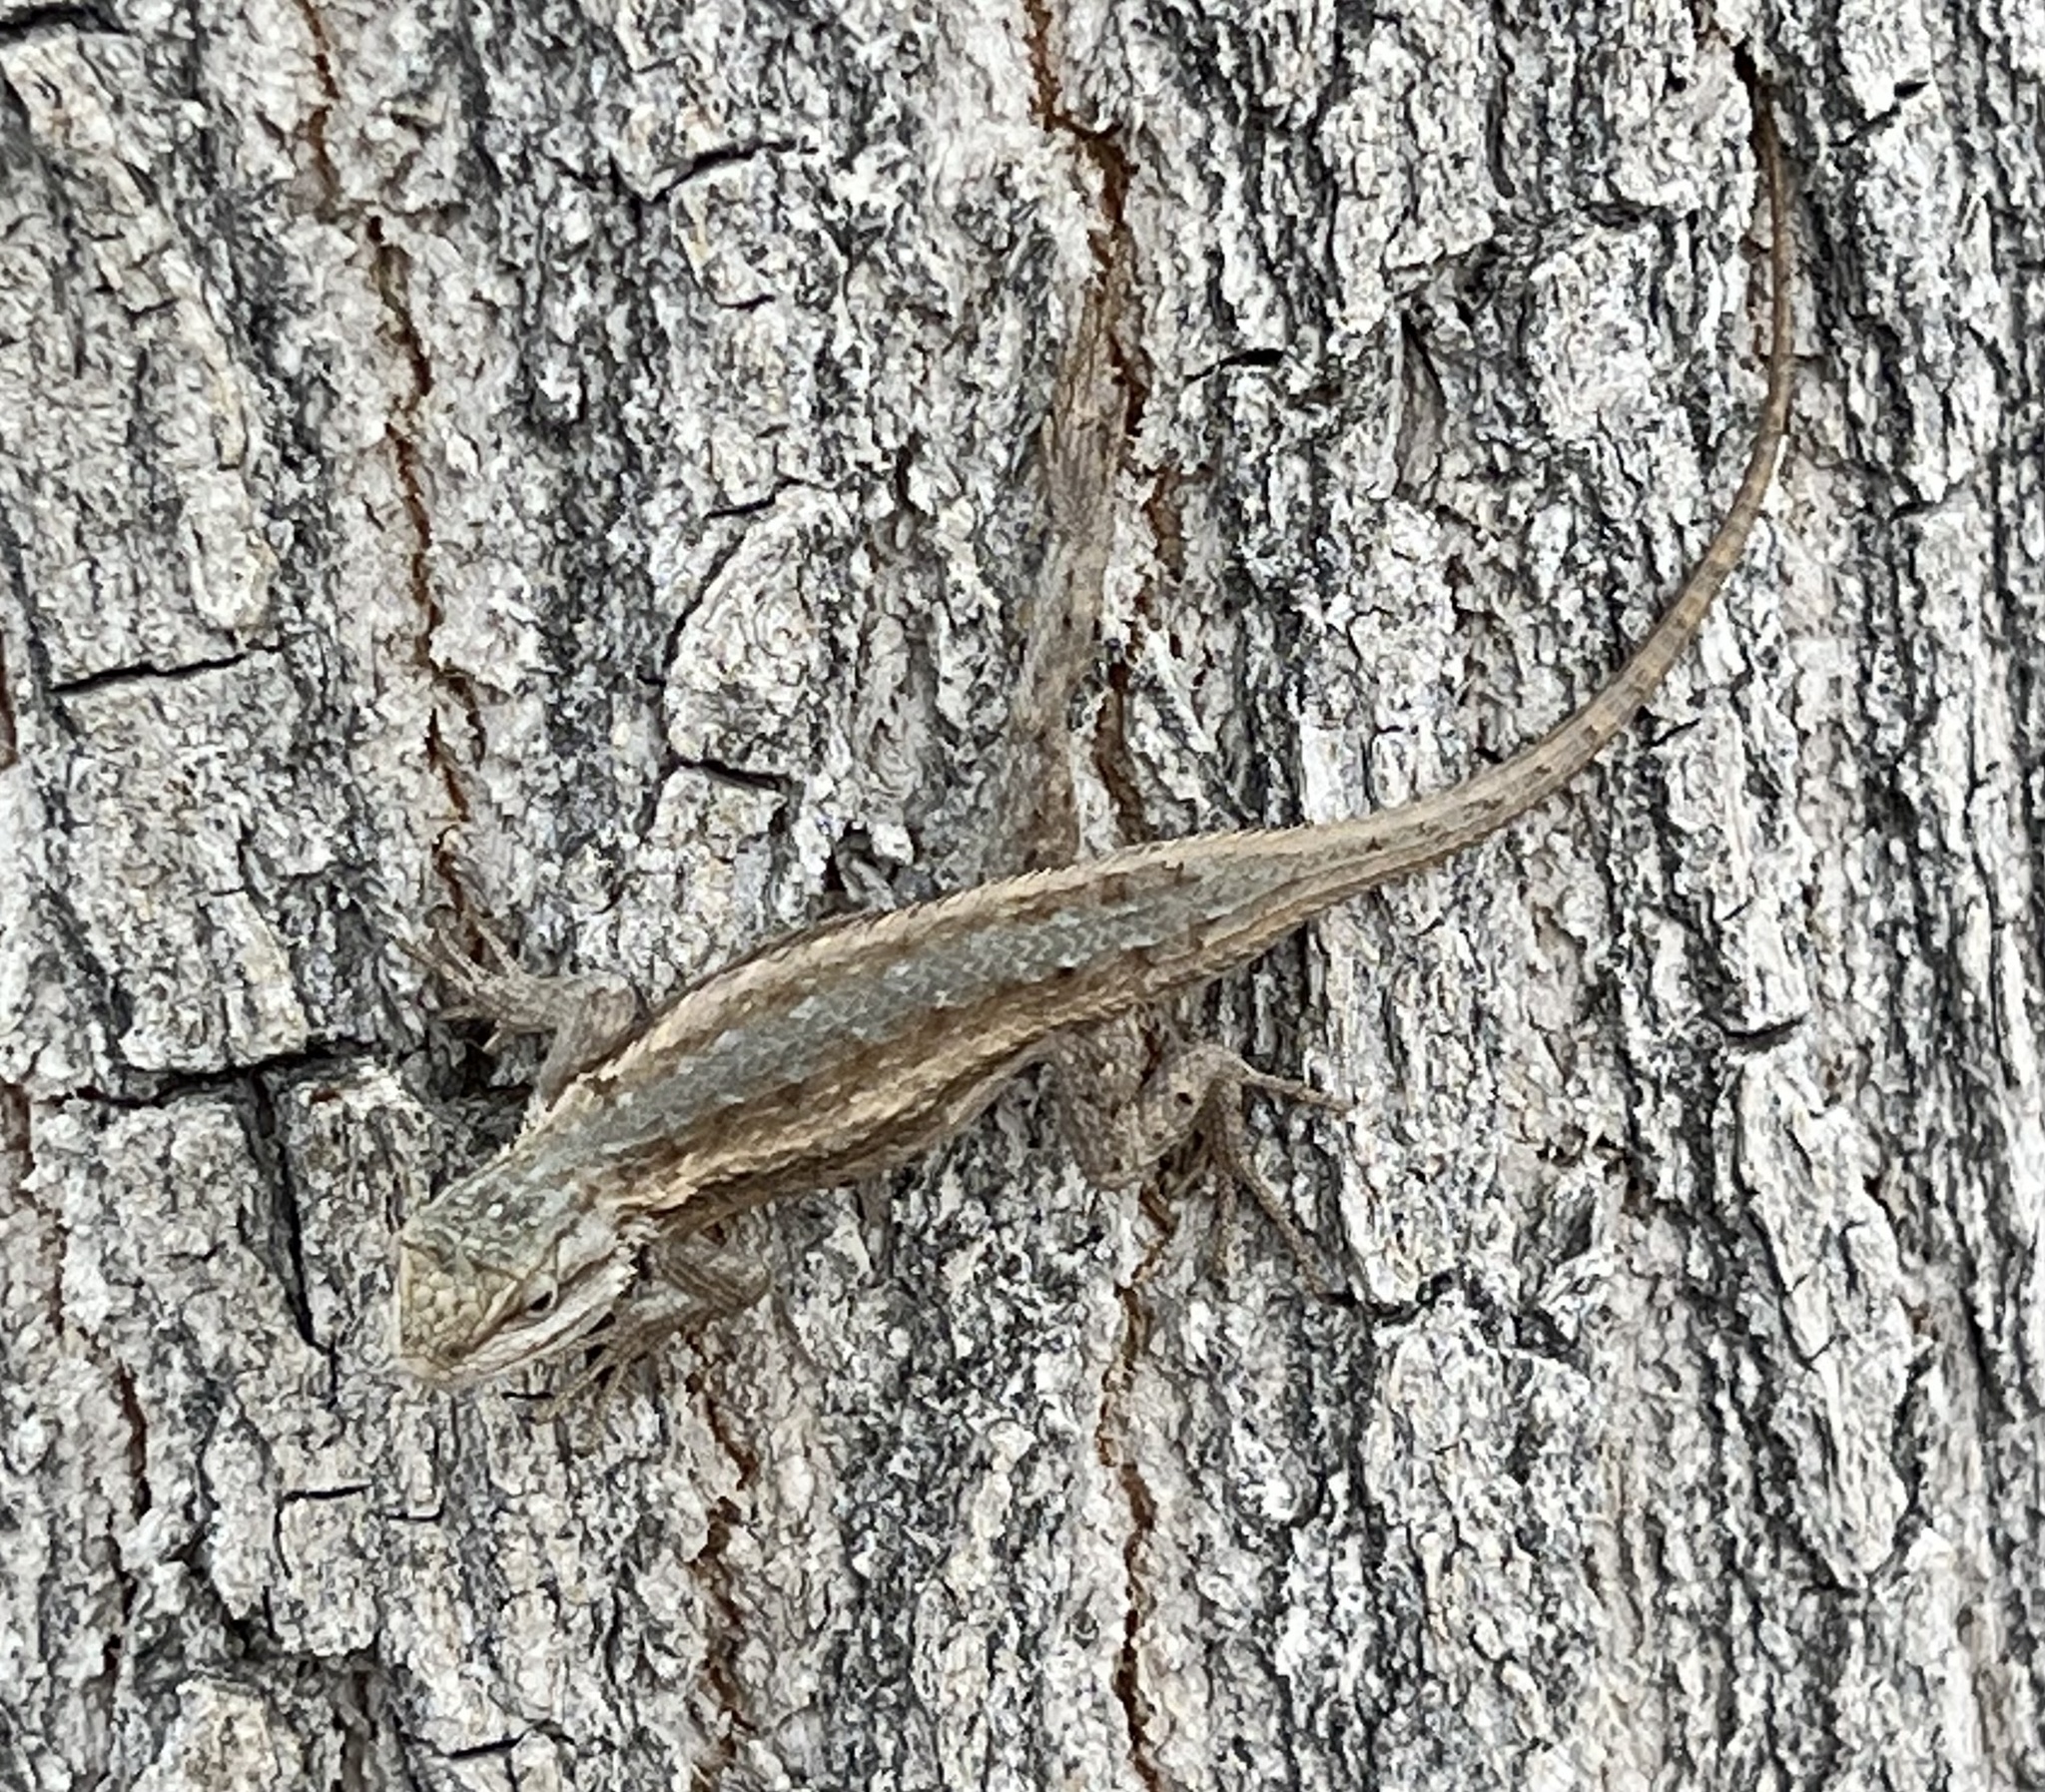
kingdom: Animalia
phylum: Chordata
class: Squamata
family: Phrynosomatidae
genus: Sceloporus
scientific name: Sceloporus cowlesi
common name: White sands prairie lizard
